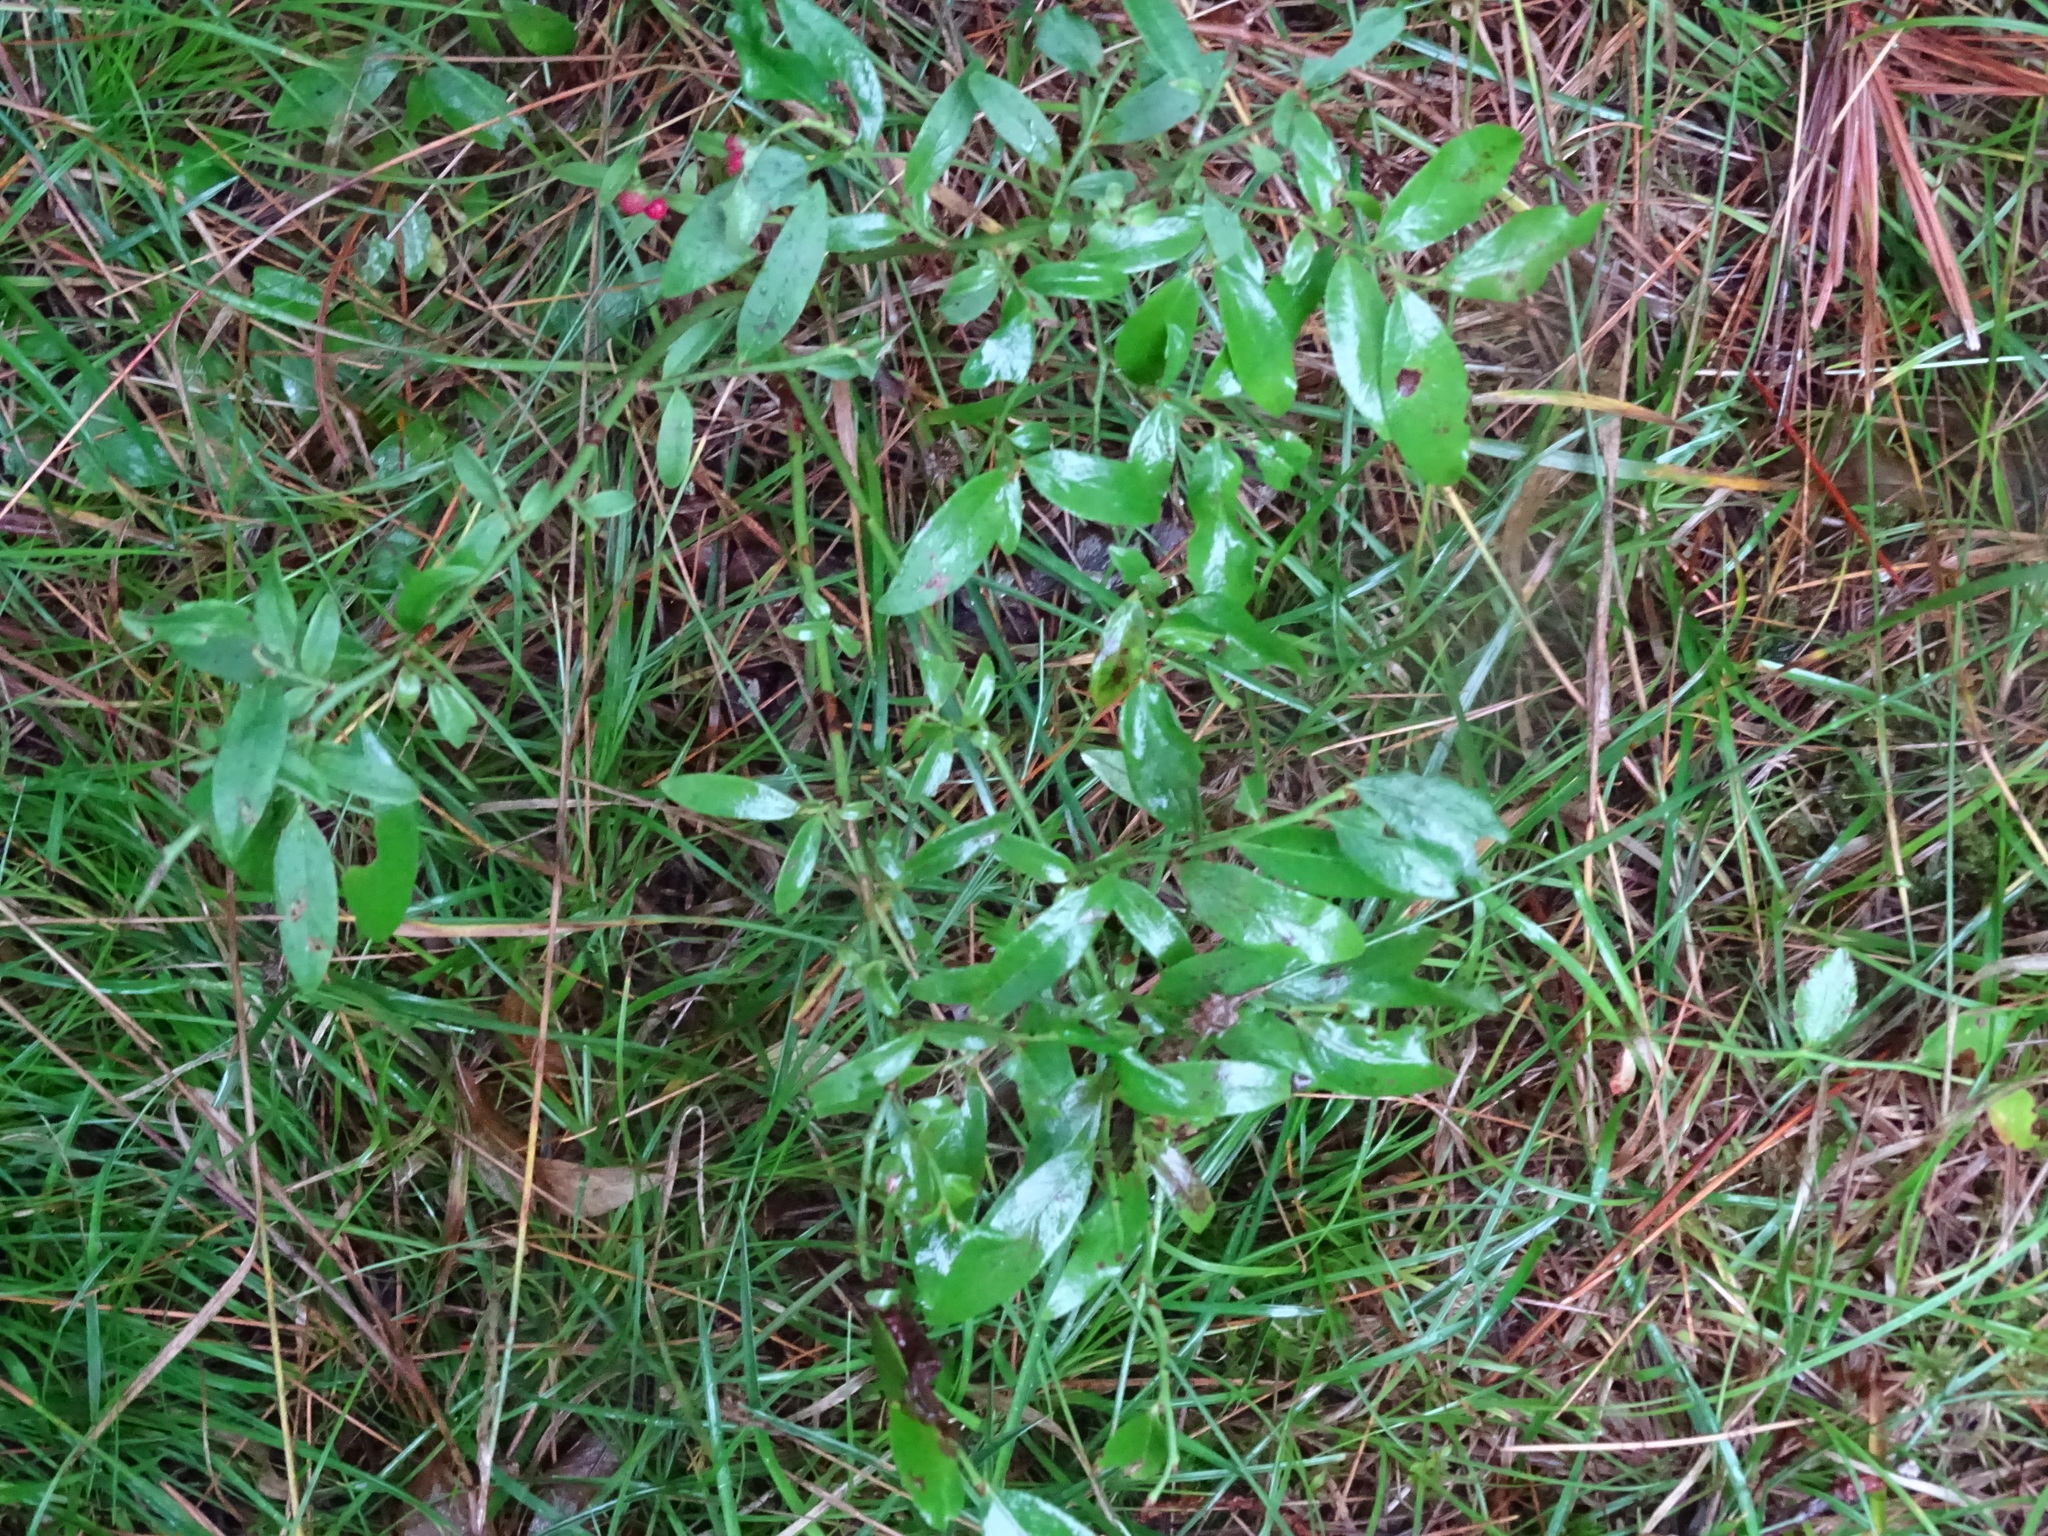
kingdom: Plantae
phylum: Tracheophyta
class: Magnoliopsida
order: Ericales
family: Ericaceae
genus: Vaccinium
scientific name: Vaccinium angustifolium
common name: Early lowbush blueberry
